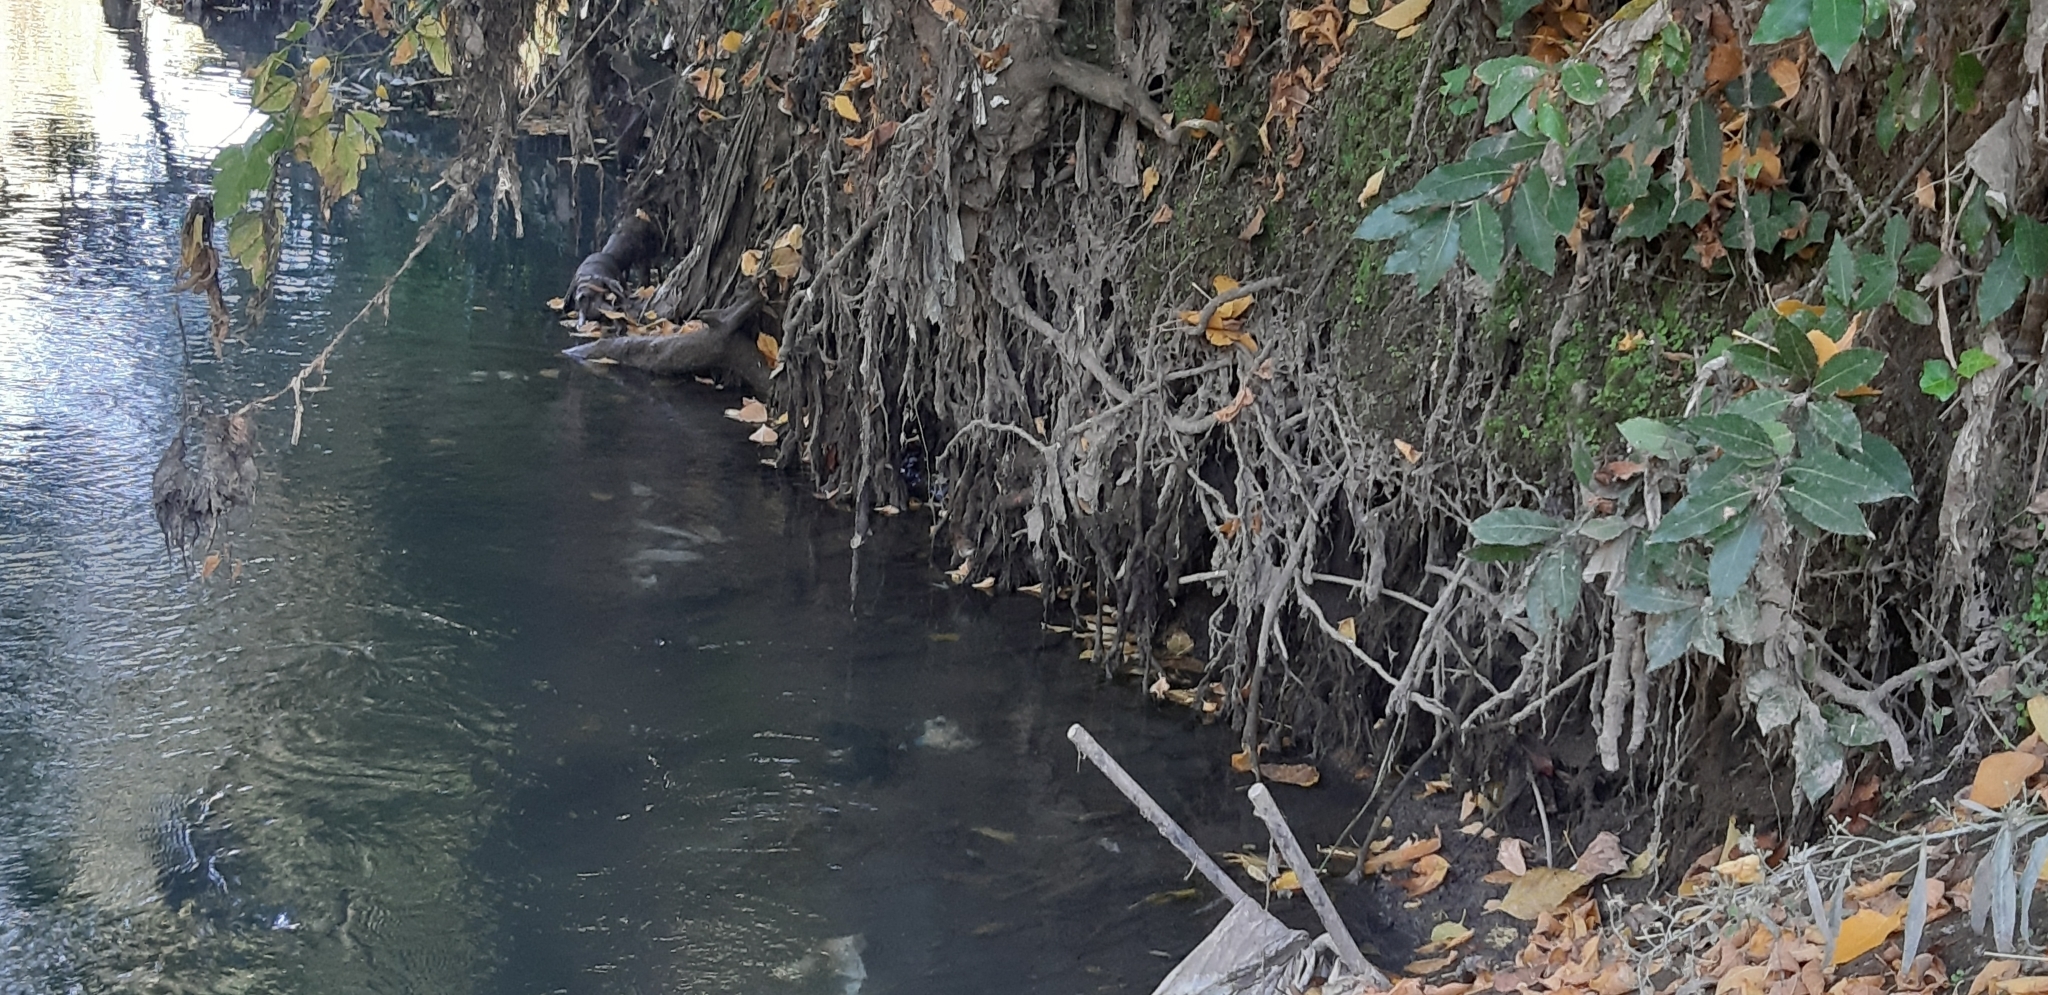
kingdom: Animalia
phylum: Chordata
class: Aves
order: Passeriformes
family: Cettiidae
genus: Cettia
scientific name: Cettia cetti
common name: Cetti's warbler
